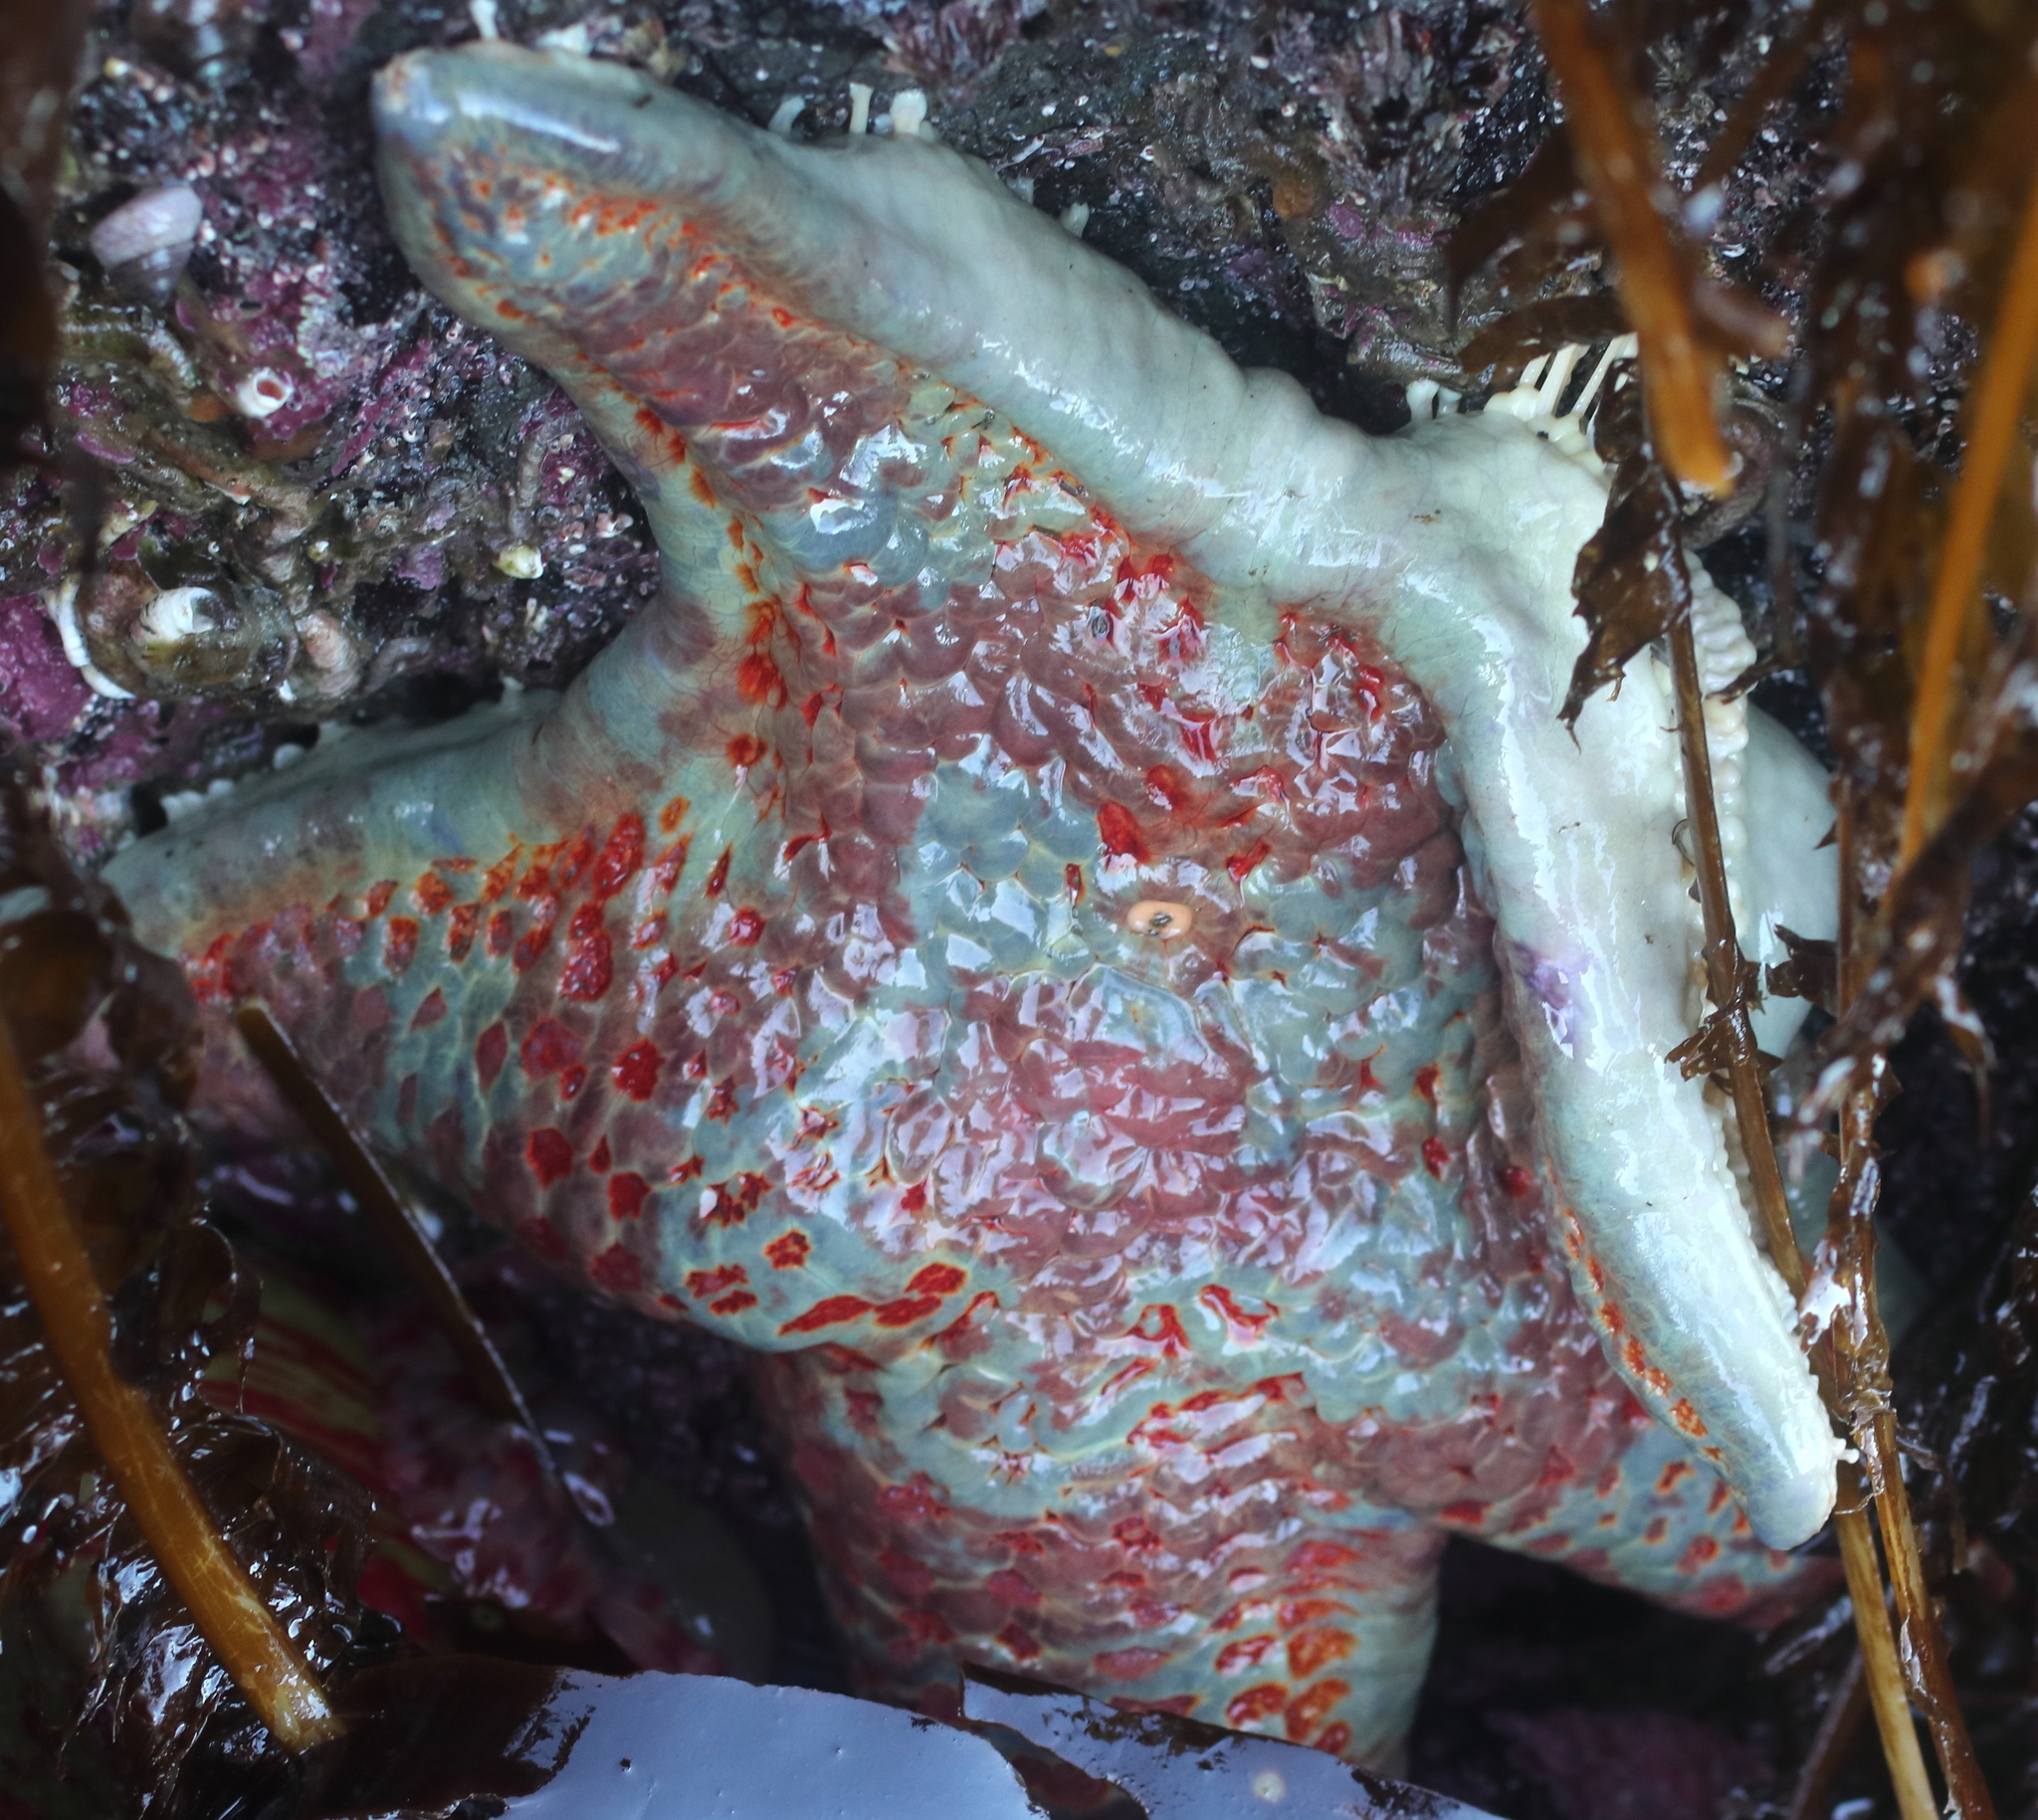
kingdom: Animalia
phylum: Echinodermata
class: Asteroidea
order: Valvatida
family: Asteropseidae
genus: Dermasterias
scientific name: Dermasterias imbricata
